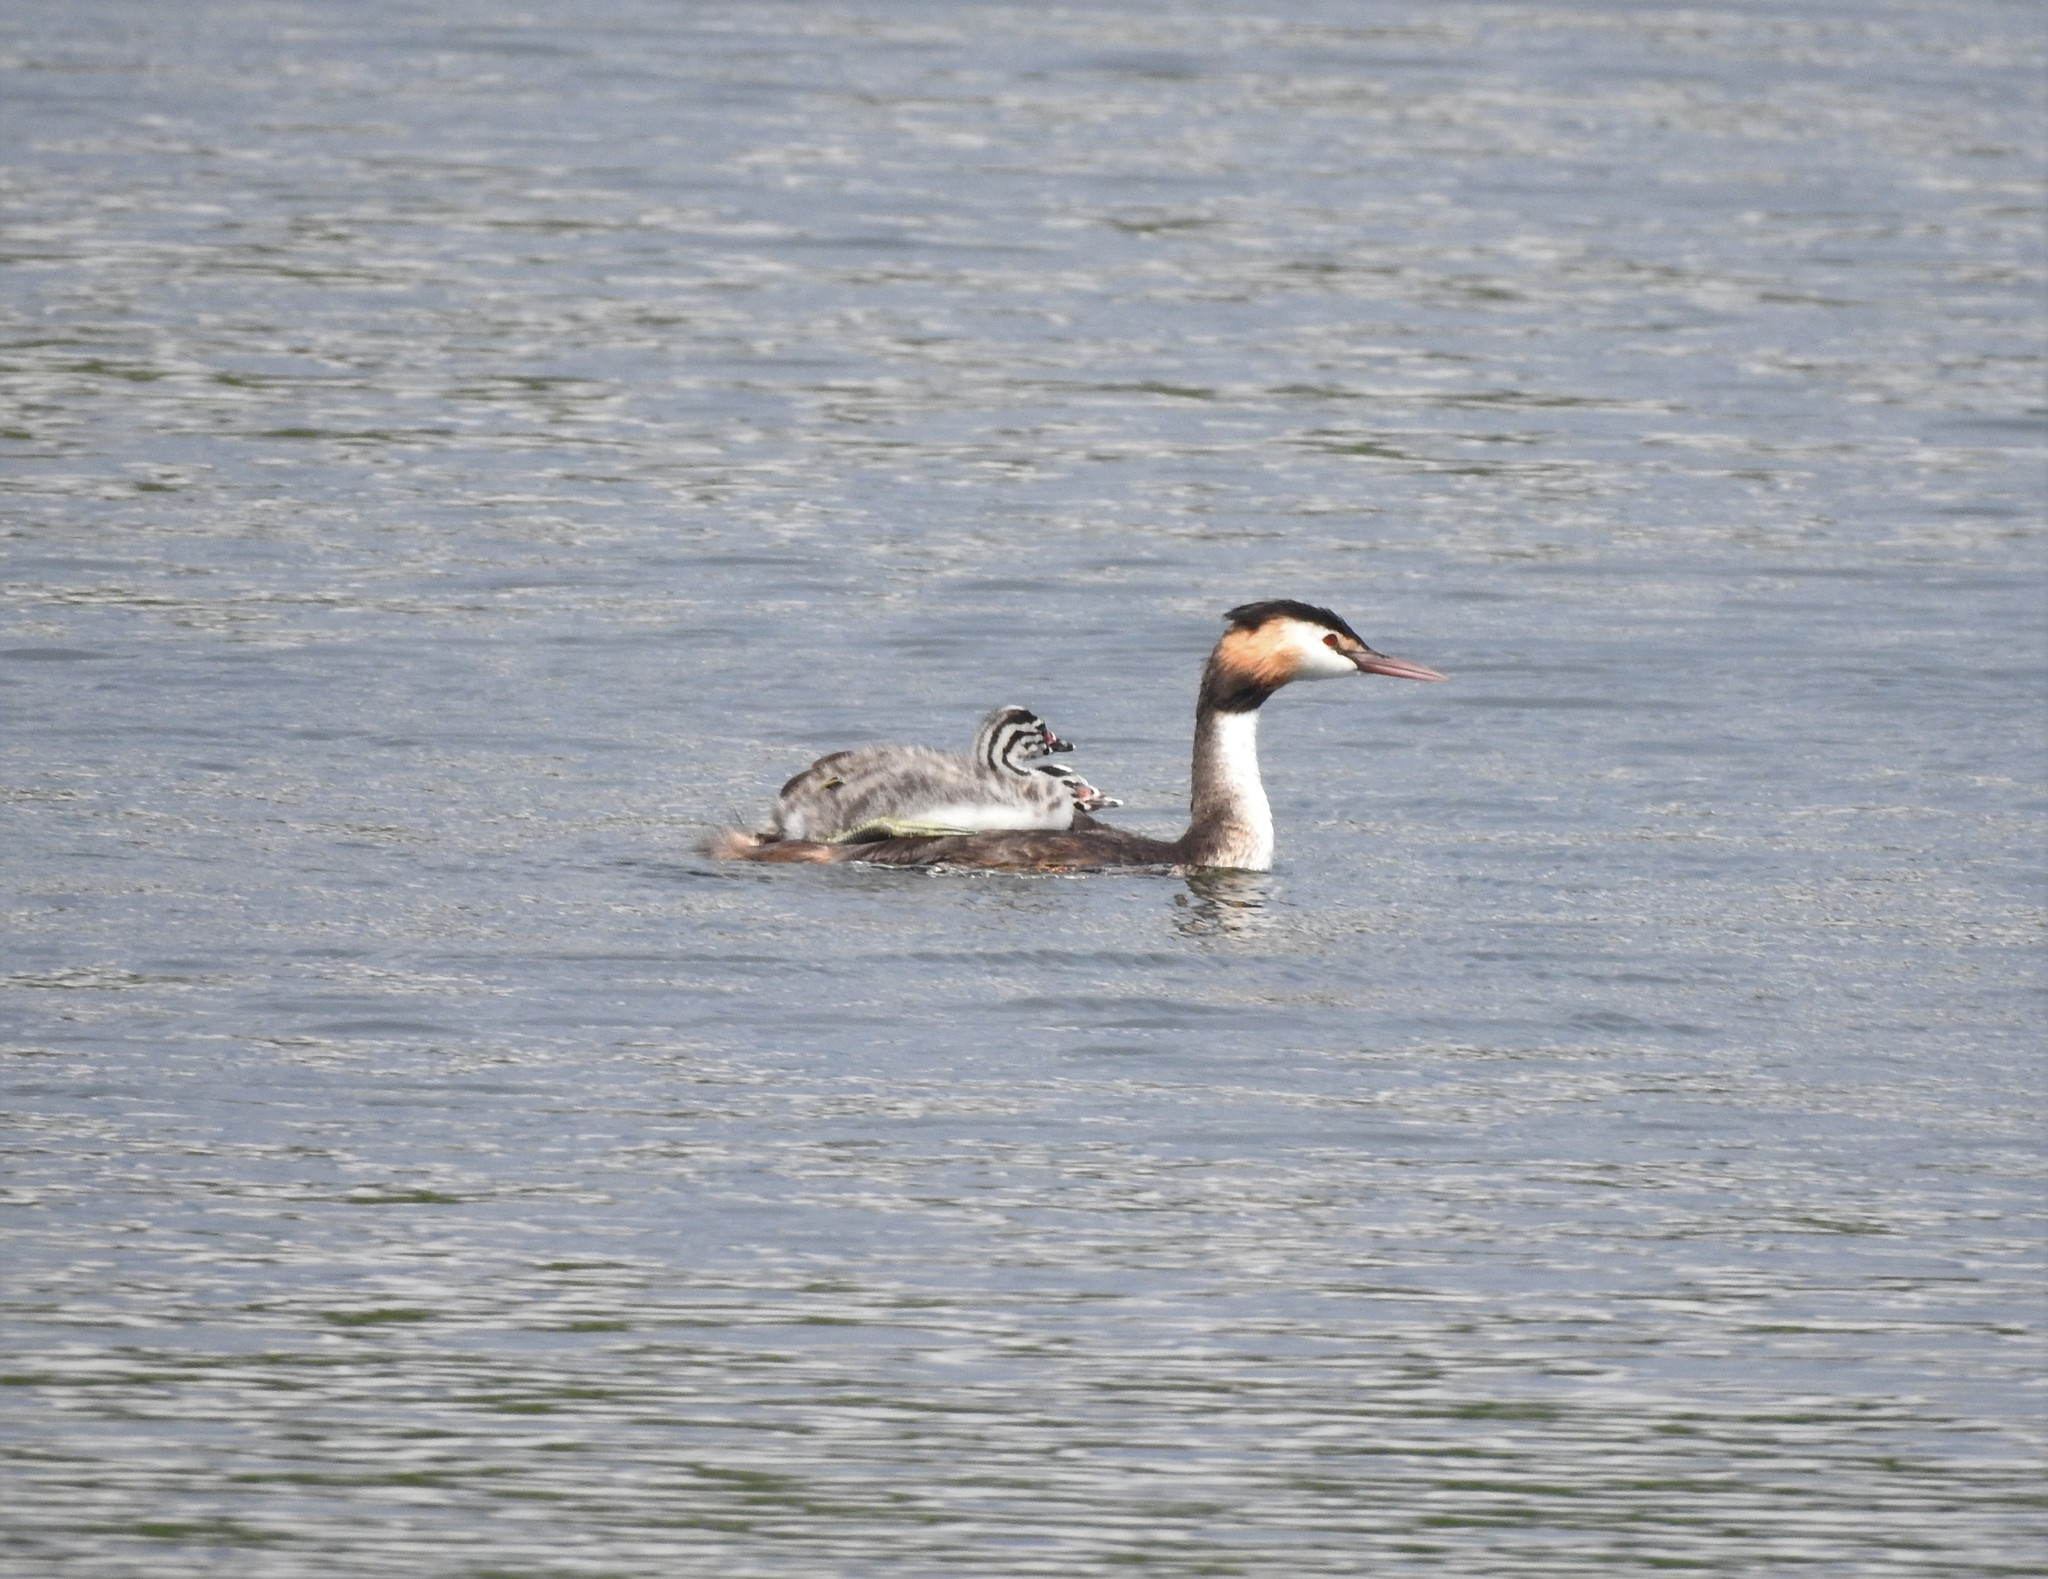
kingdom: Animalia
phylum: Chordata
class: Aves
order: Podicipediformes
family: Podicipedidae
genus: Podiceps
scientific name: Podiceps cristatus
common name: Great crested grebe
